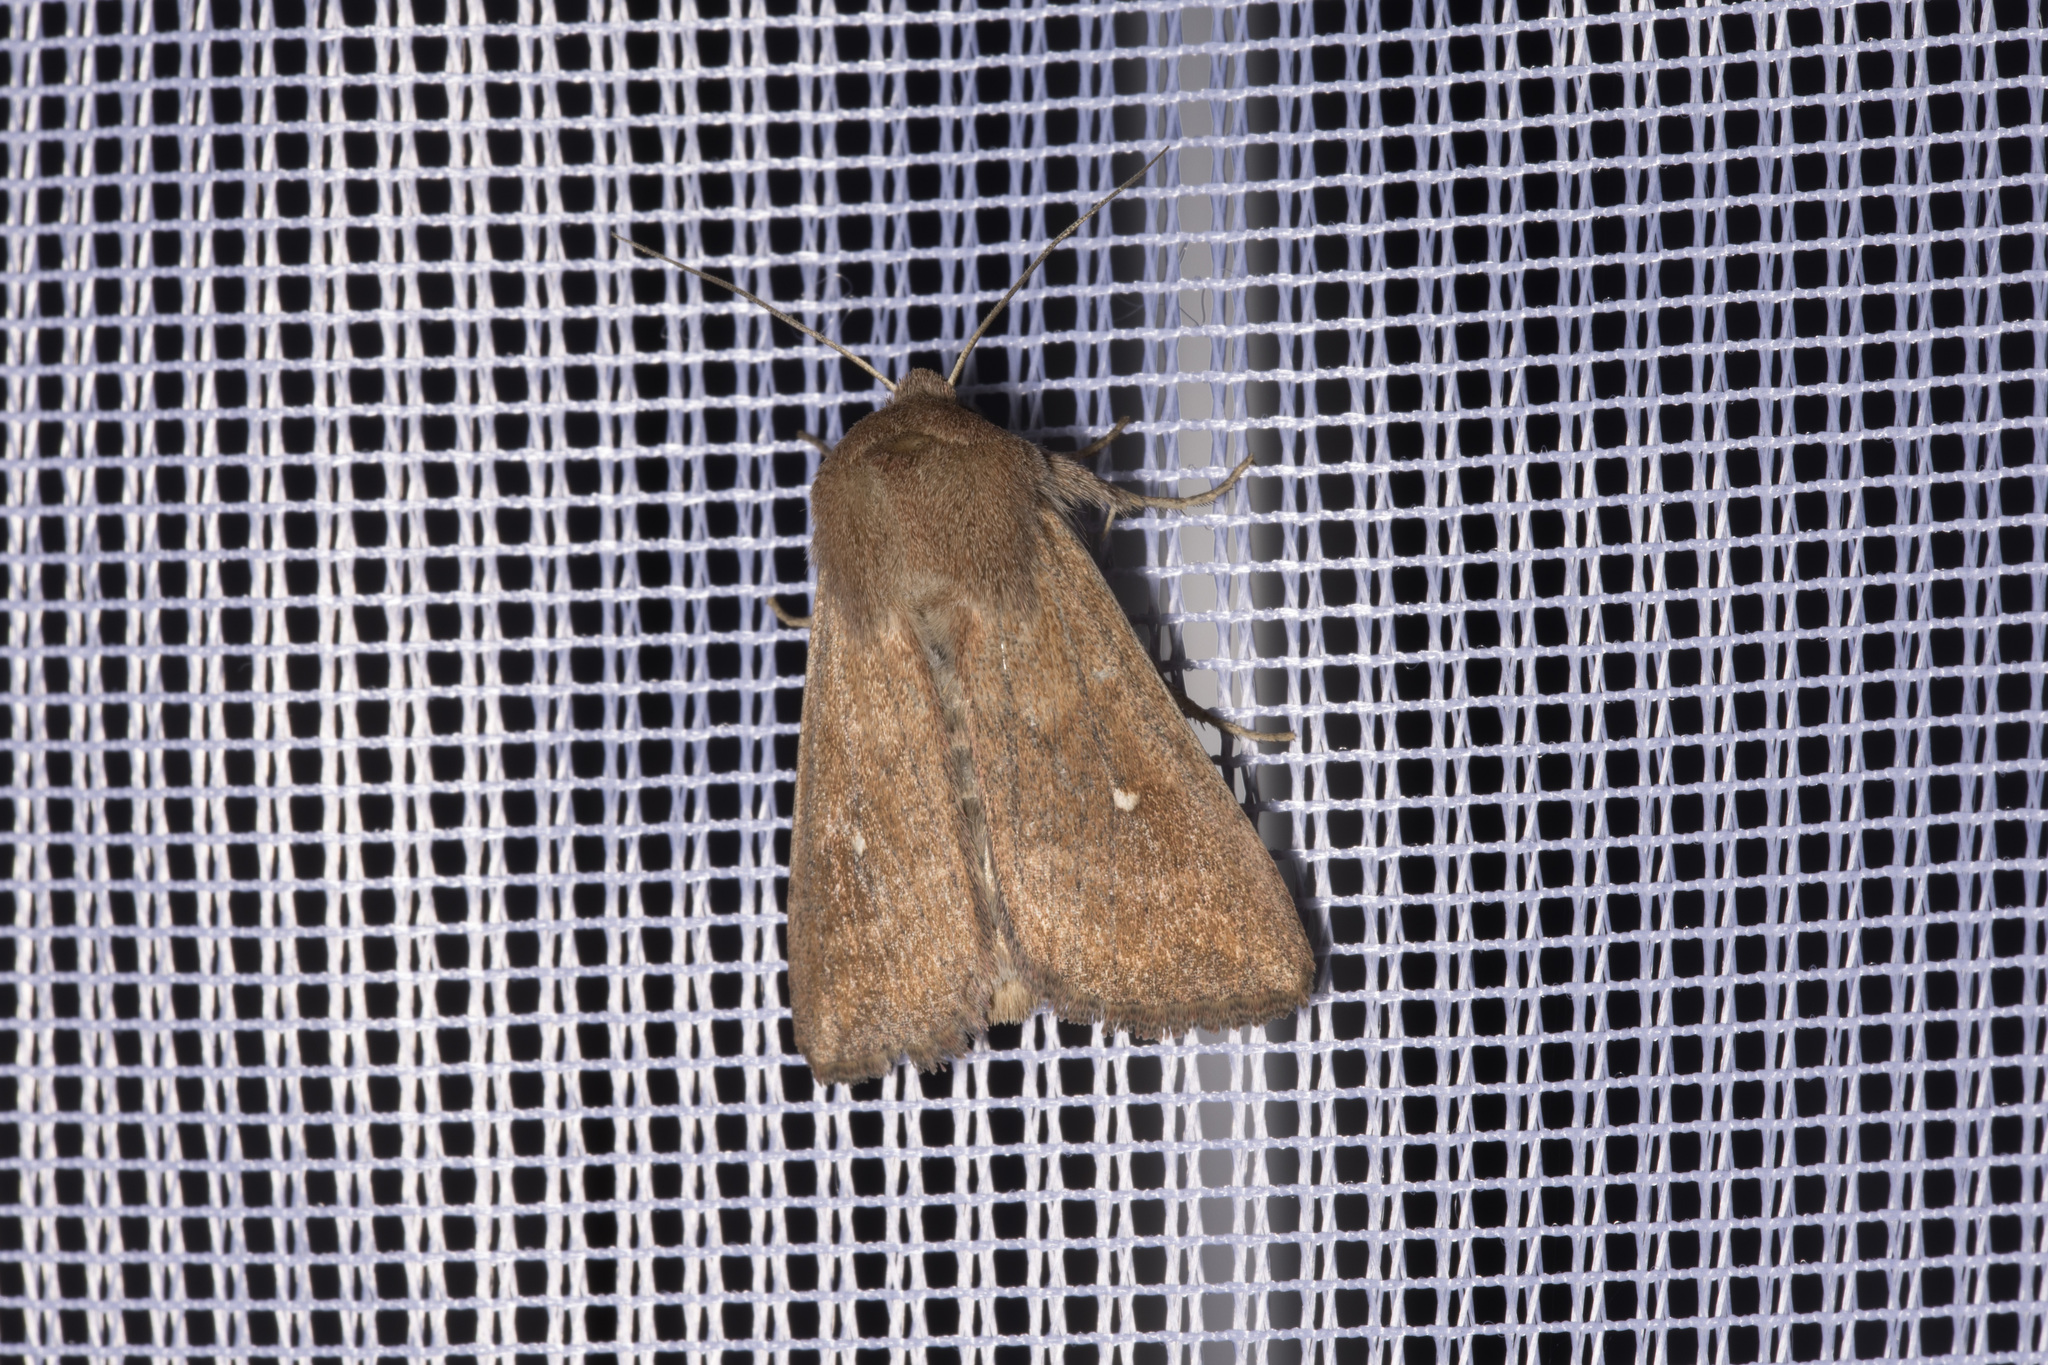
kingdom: Animalia
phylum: Arthropoda
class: Insecta
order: Lepidoptera
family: Noctuidae
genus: Mythimna
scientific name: Mythimna albipuncta
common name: White-point
